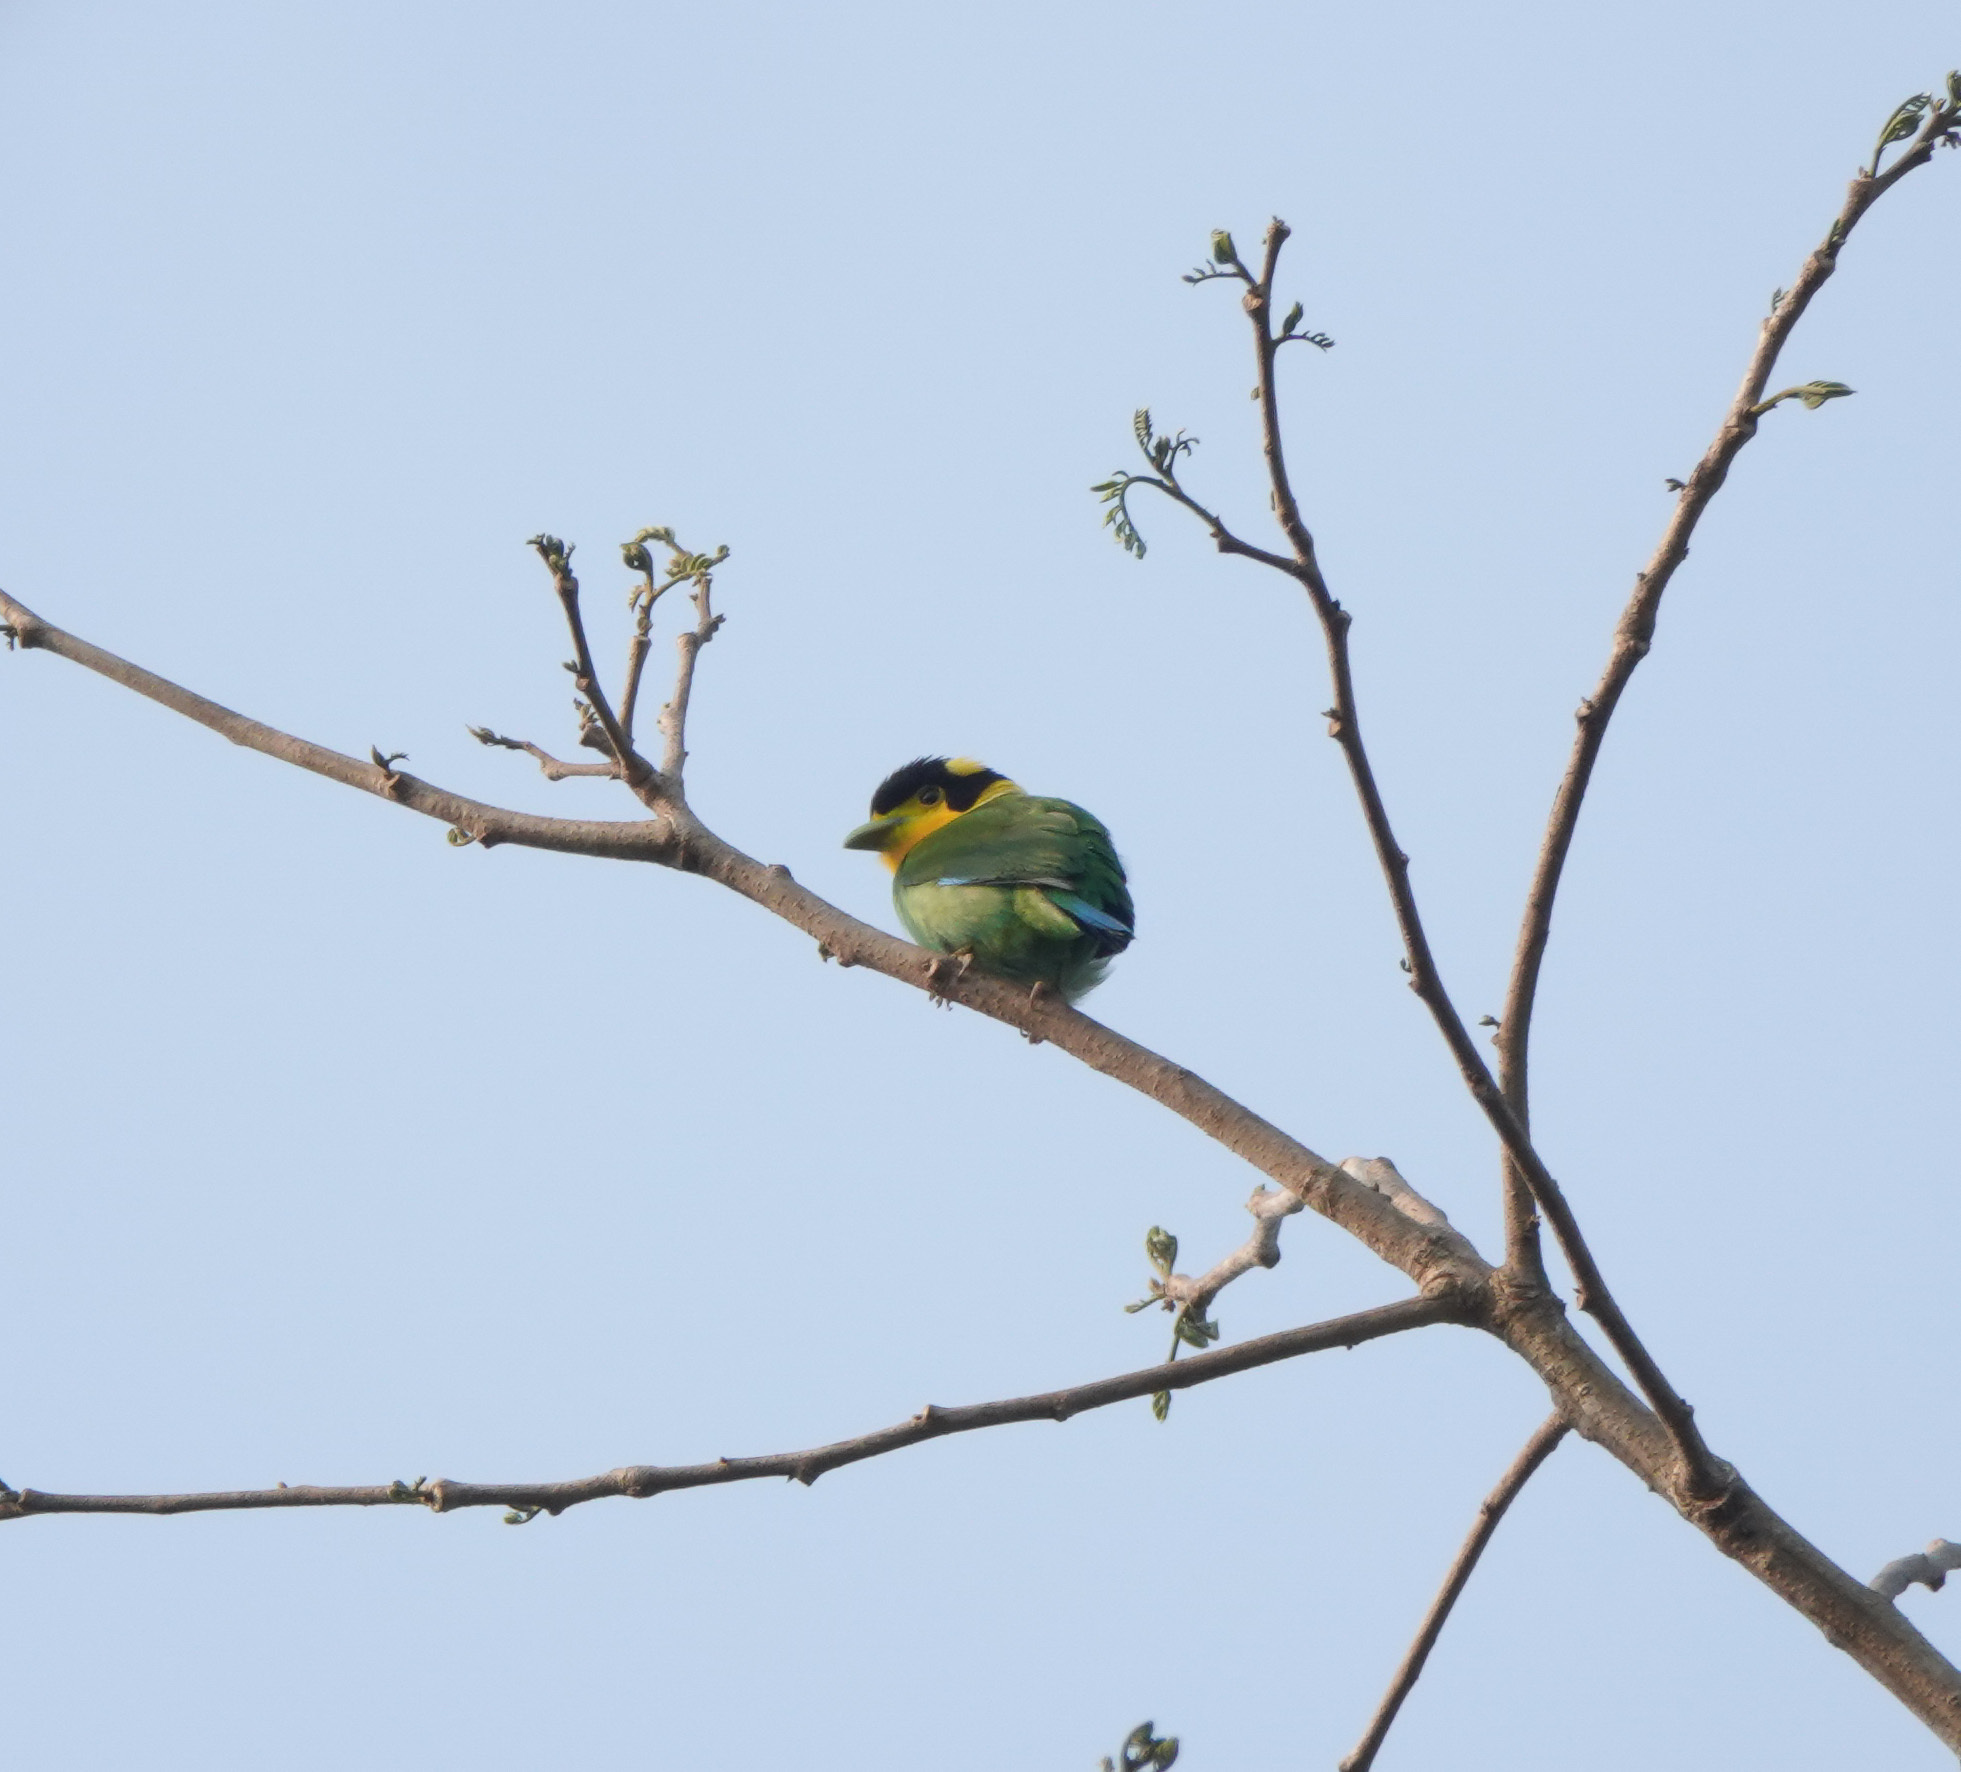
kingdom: Animalia
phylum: Chordata
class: Aves
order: Passeriformes
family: Eurylaimidae
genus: Psarisomus
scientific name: Psarisomus dalhousiae
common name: Long-tailed broadbill
